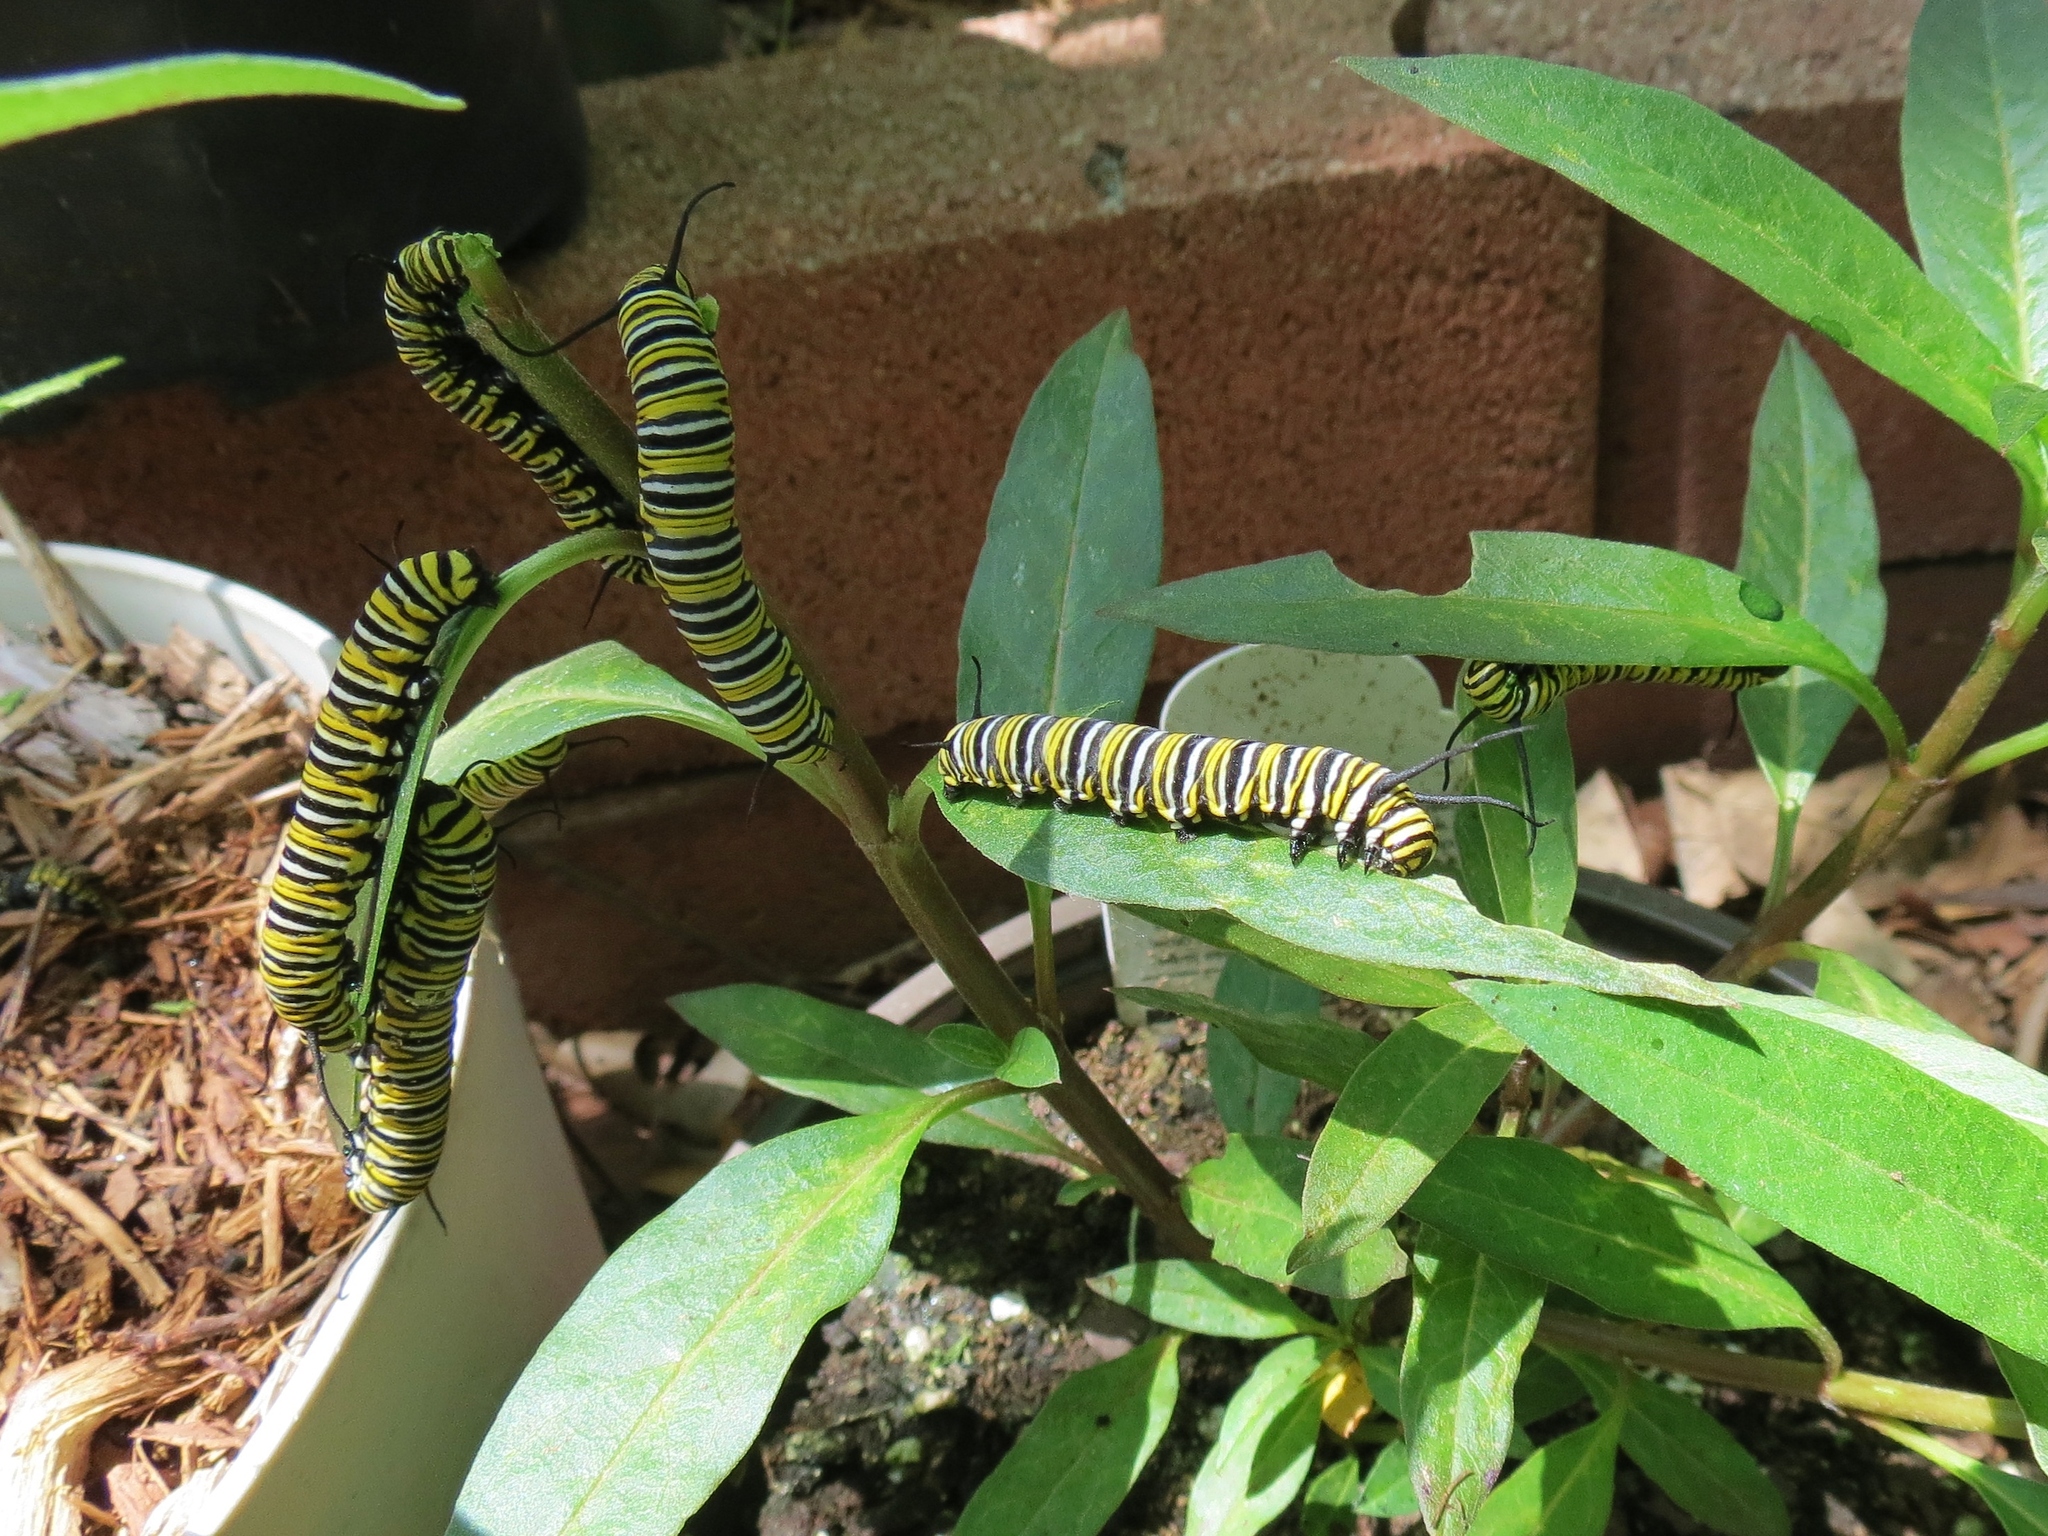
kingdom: Animalia
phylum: Arthropoda
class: Insecta
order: Lepidoptera
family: Nymphalidae
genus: Danaus
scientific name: Danaus plexippus
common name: Monarch
